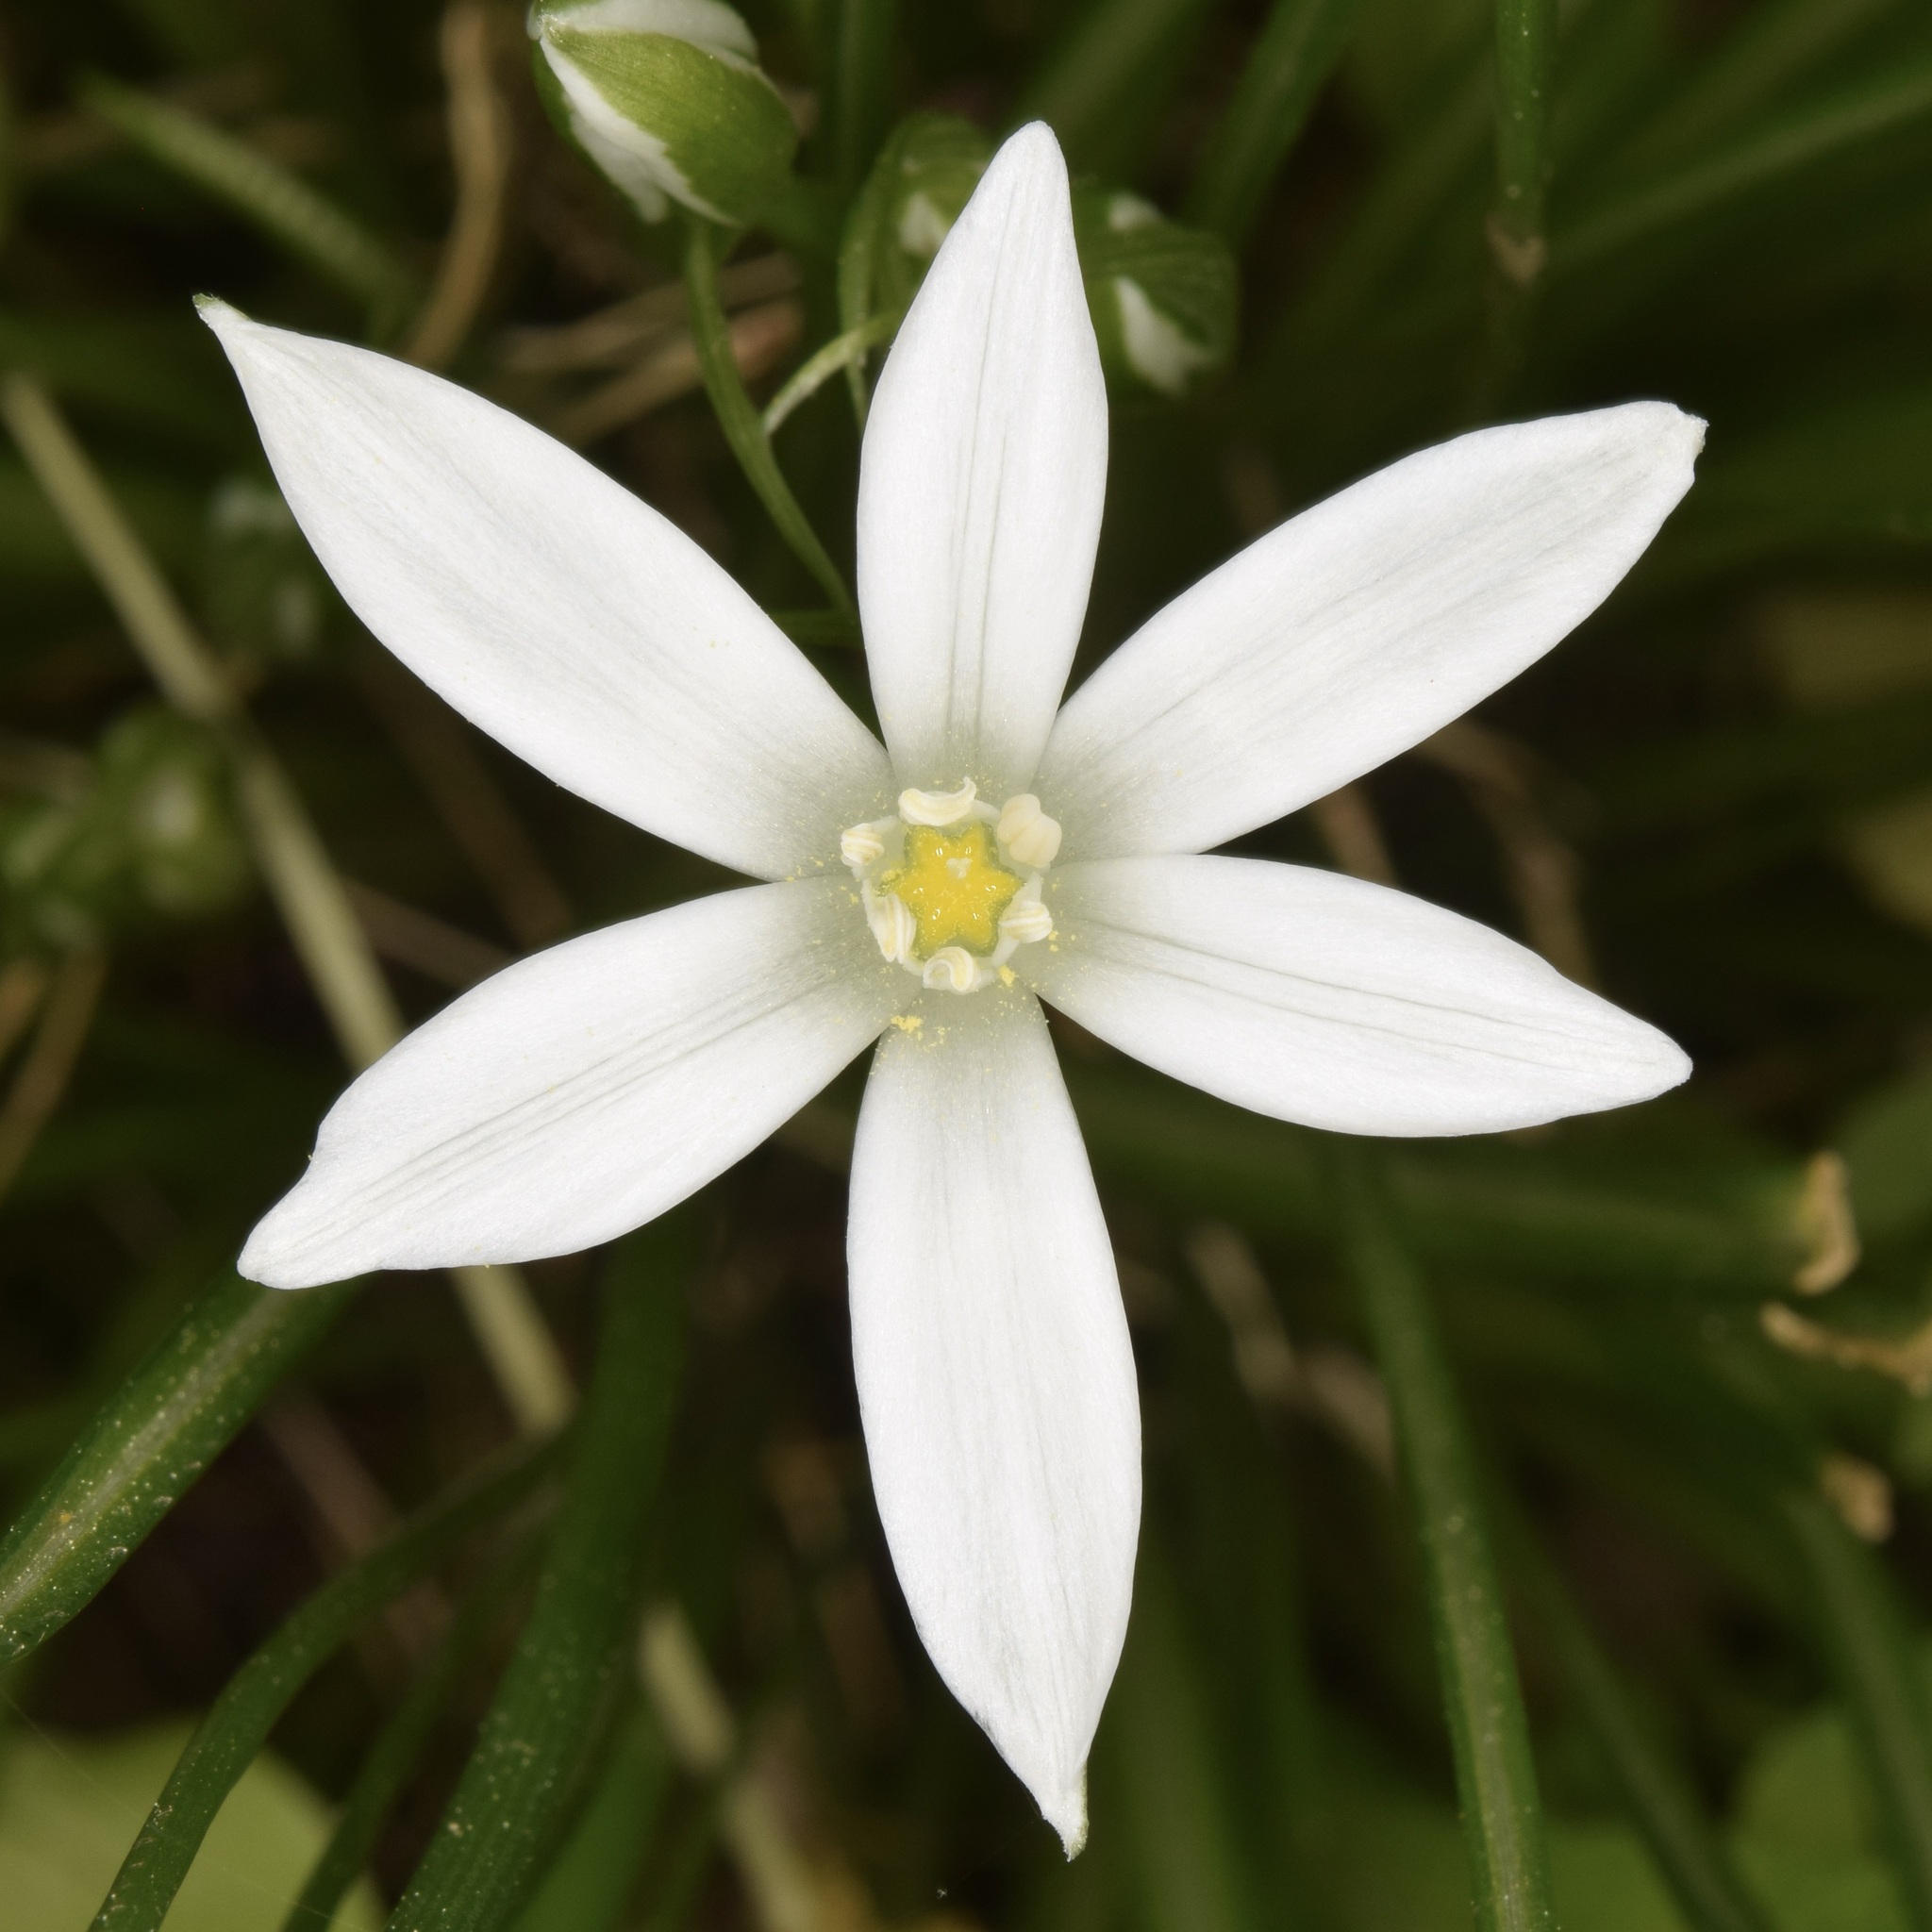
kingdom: Plantae
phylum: Tracheophyta
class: Liliopsida
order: Asparagales
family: Asparagaceae
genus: Ornithogalum
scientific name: Ornithogalum umbellatum
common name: Garden star-of-bethlehem
